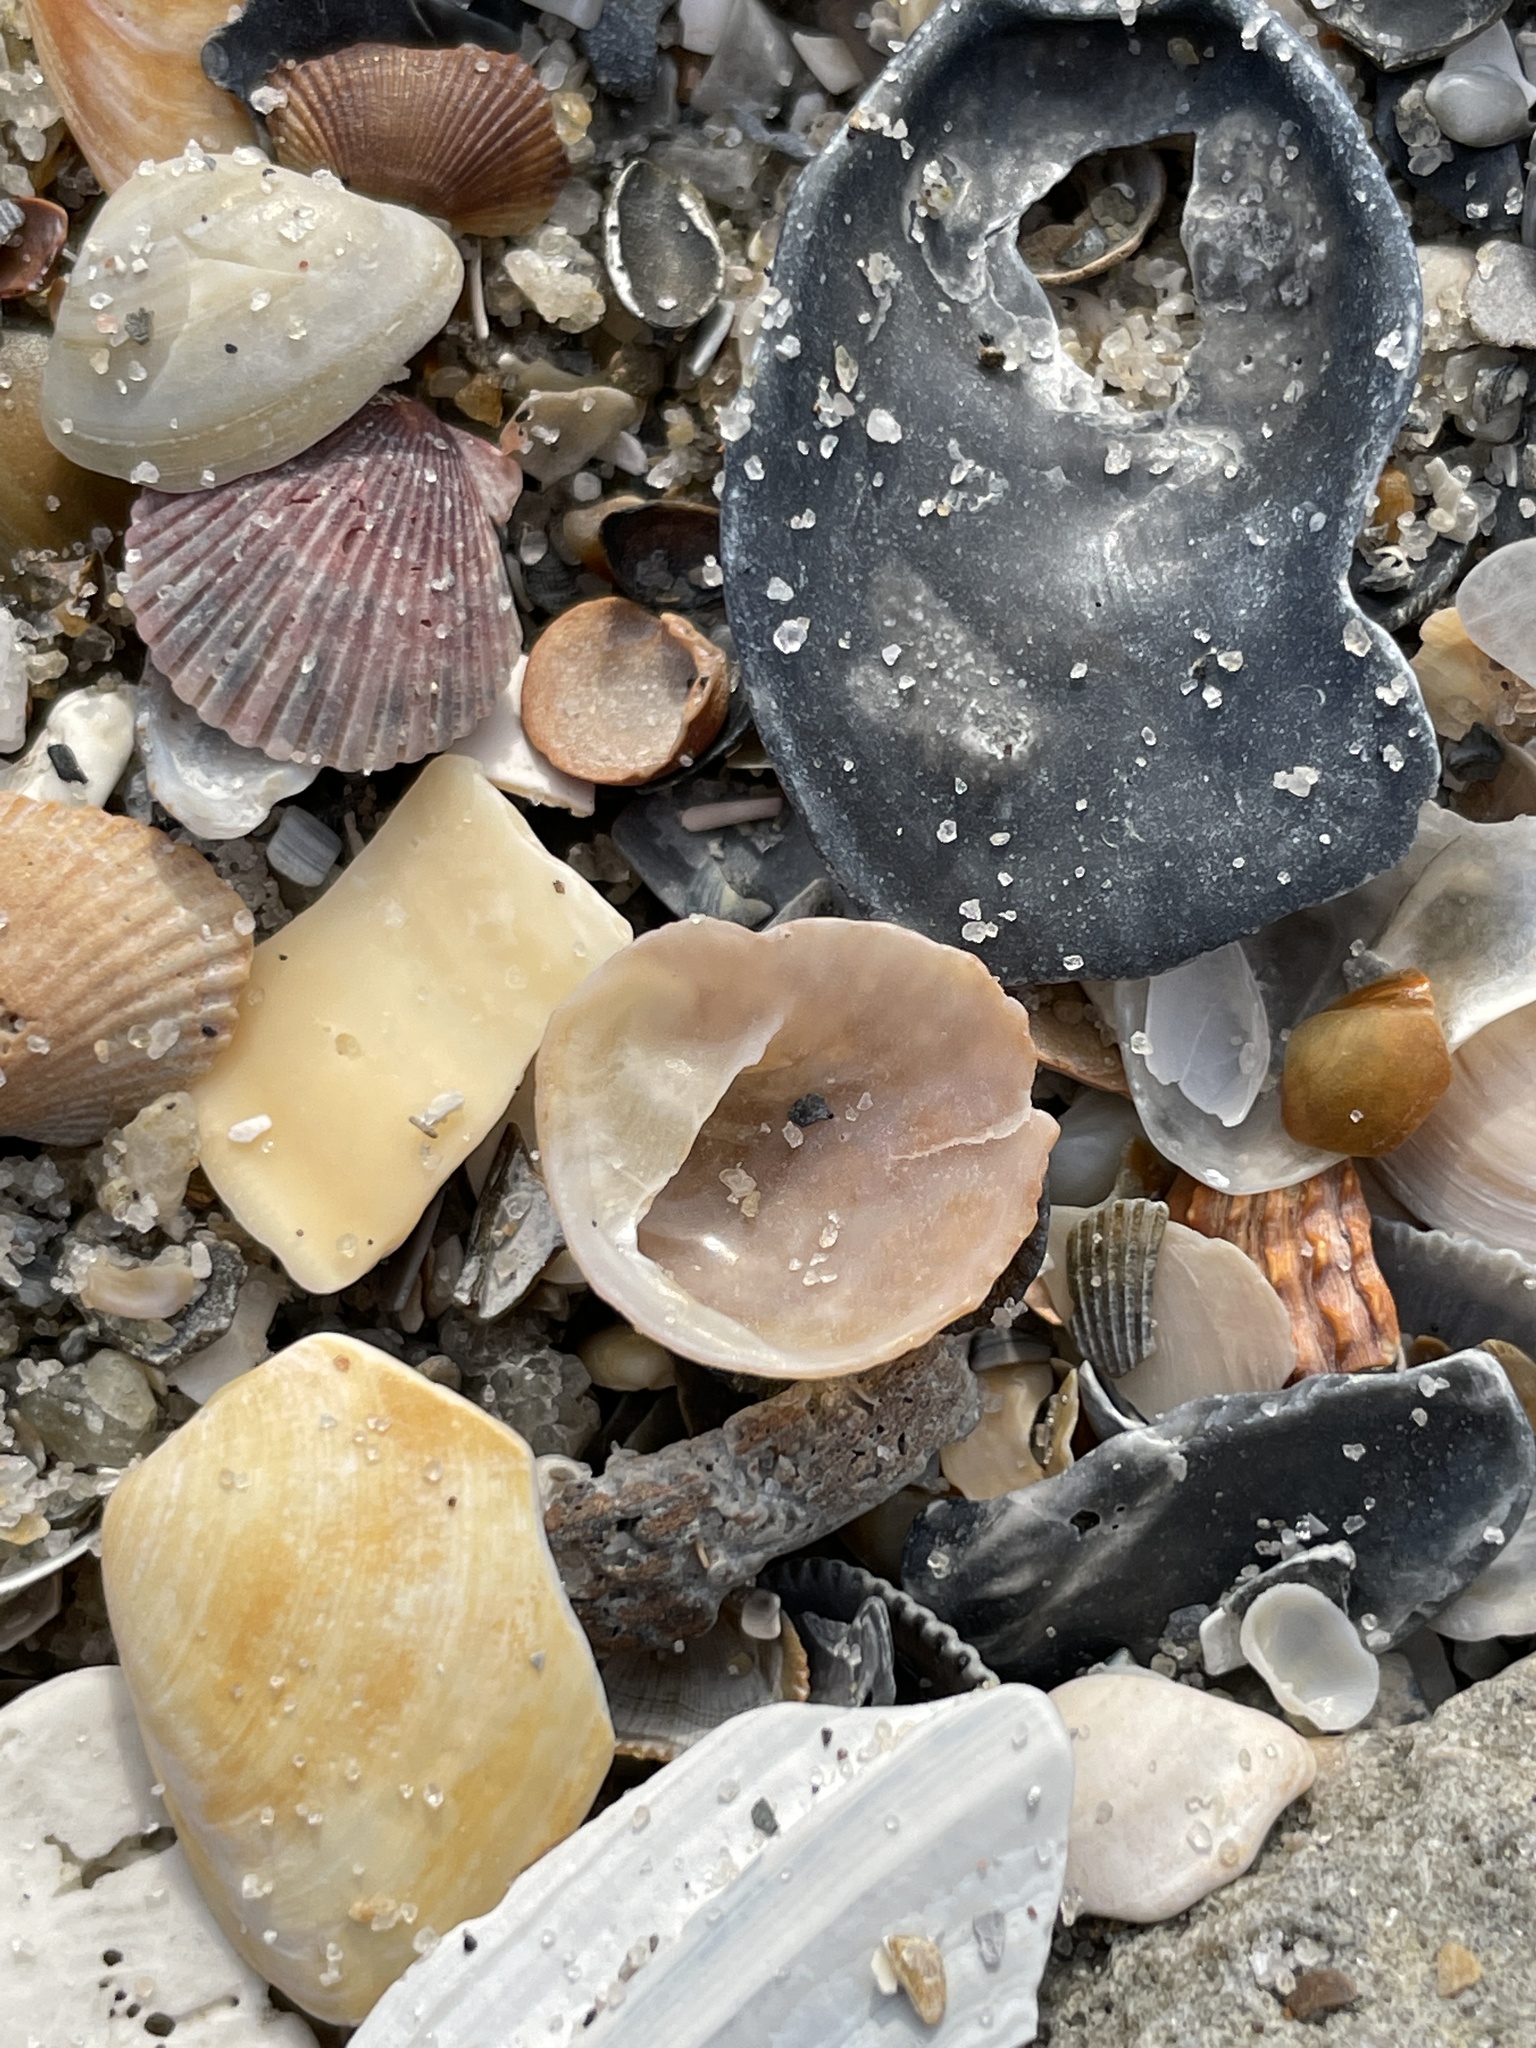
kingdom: Animalia
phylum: Mollusca
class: Gastropoda
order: Littorinimorpha
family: Calyptraeidae
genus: Bostrycapulus
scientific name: Bostrycapulus aculeatus
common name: Spiny slippersnail
